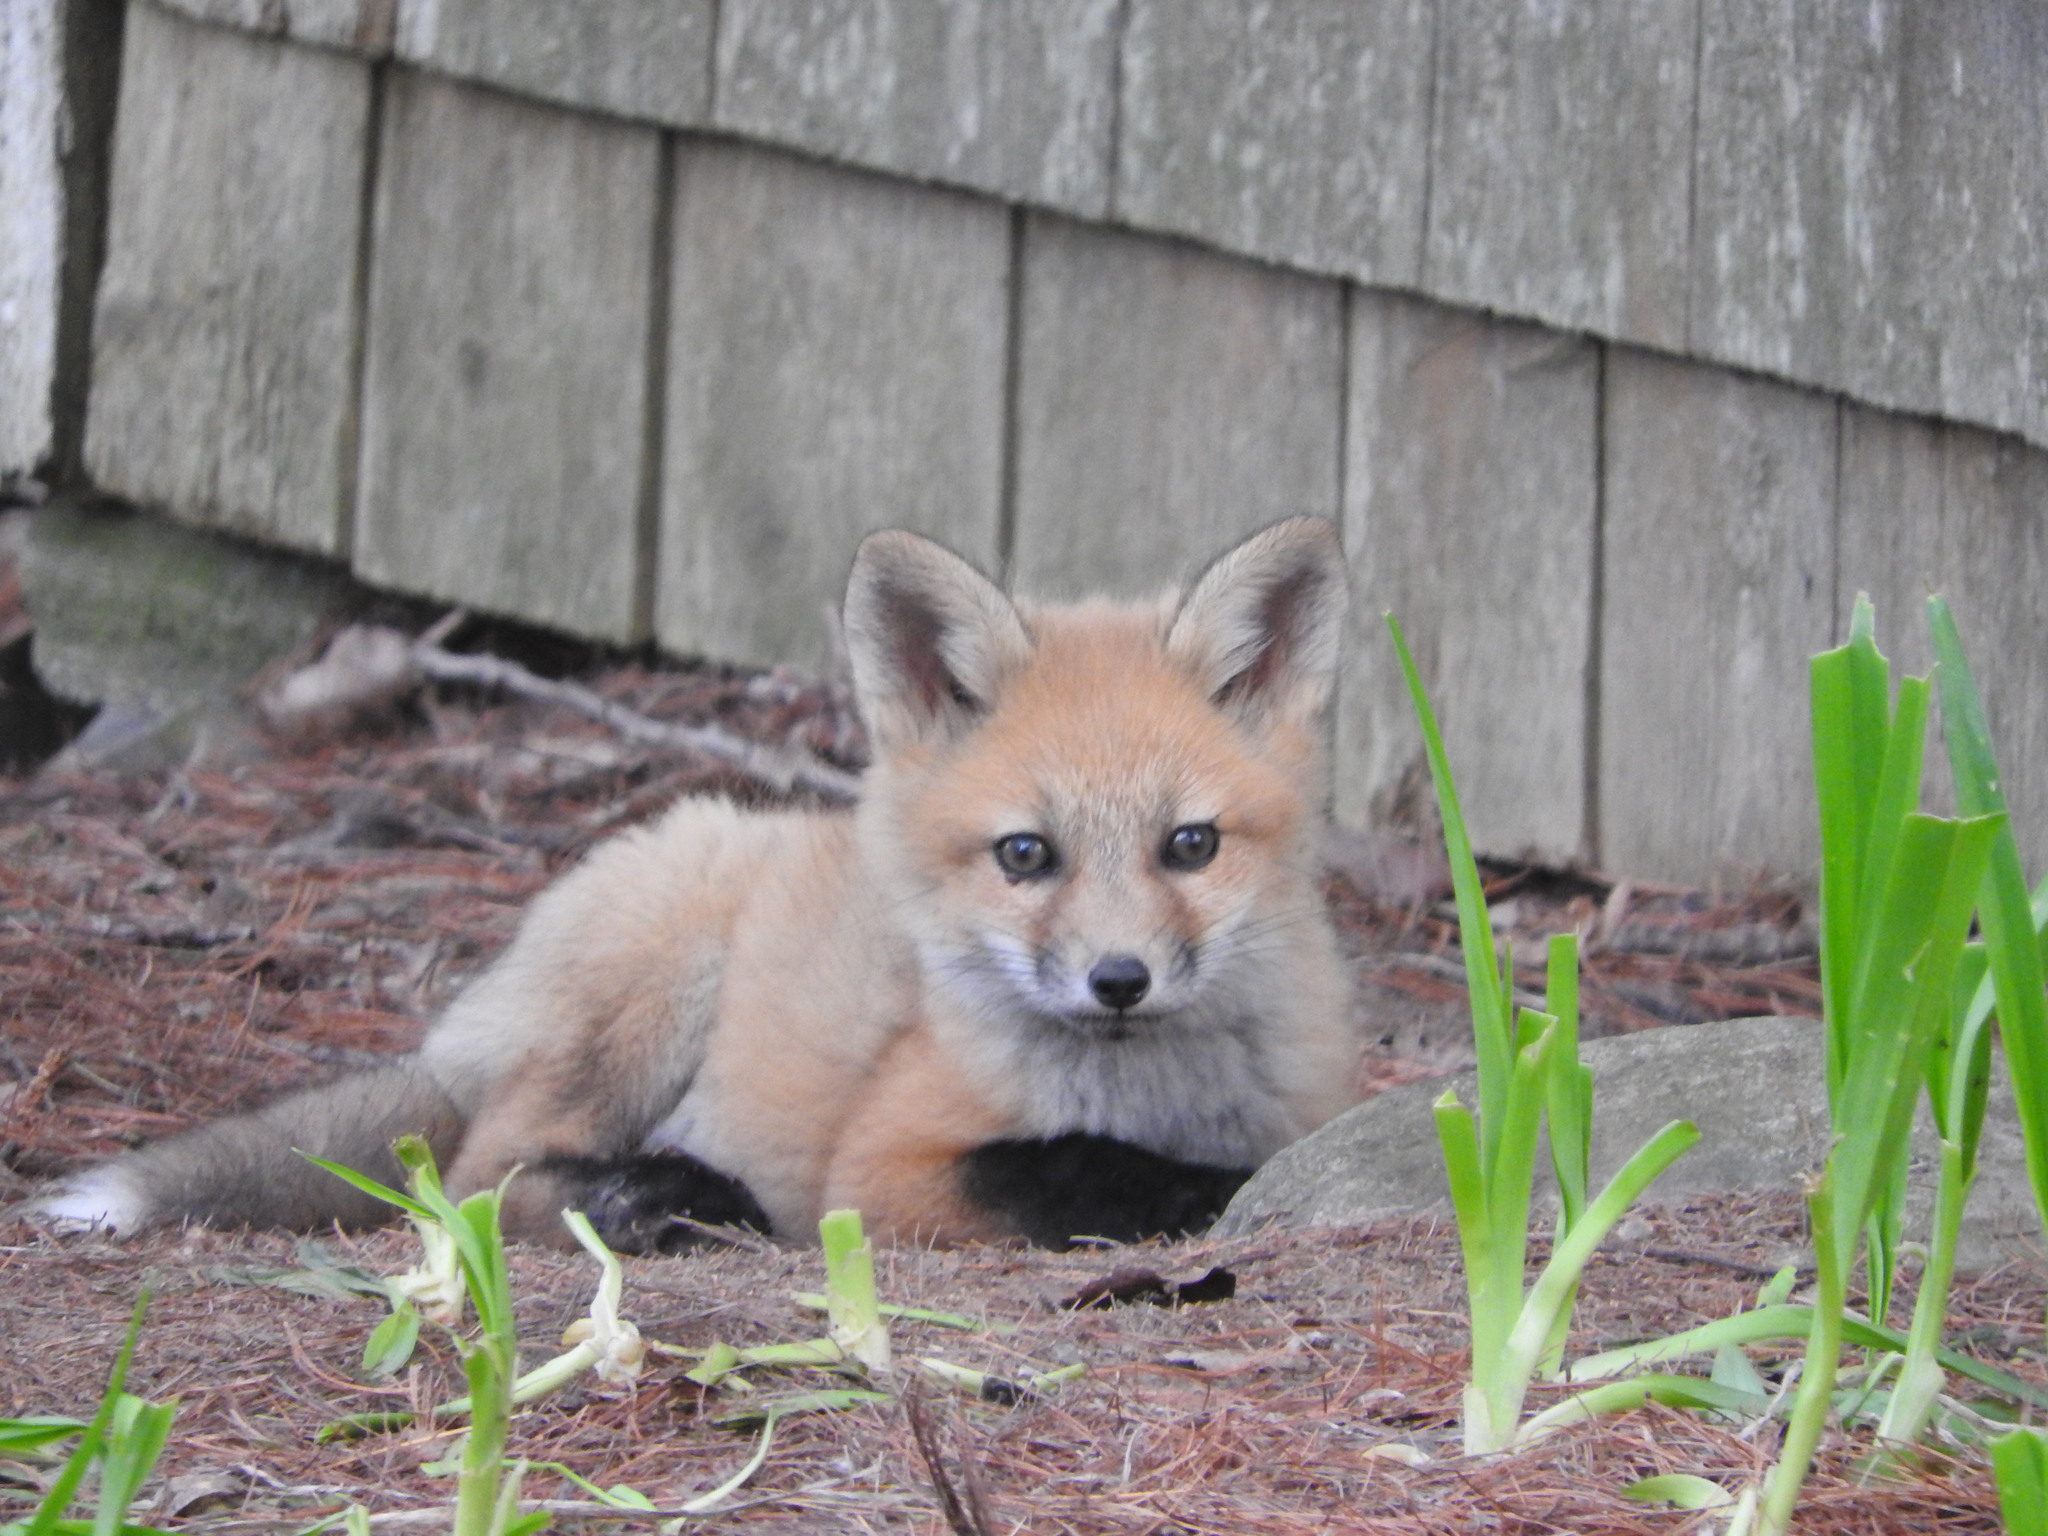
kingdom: Animalia
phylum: Chordata
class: Mammalia
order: Carnivora
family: Canidae
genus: Vulpes
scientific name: Vulpes vulpes
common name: Red fox
